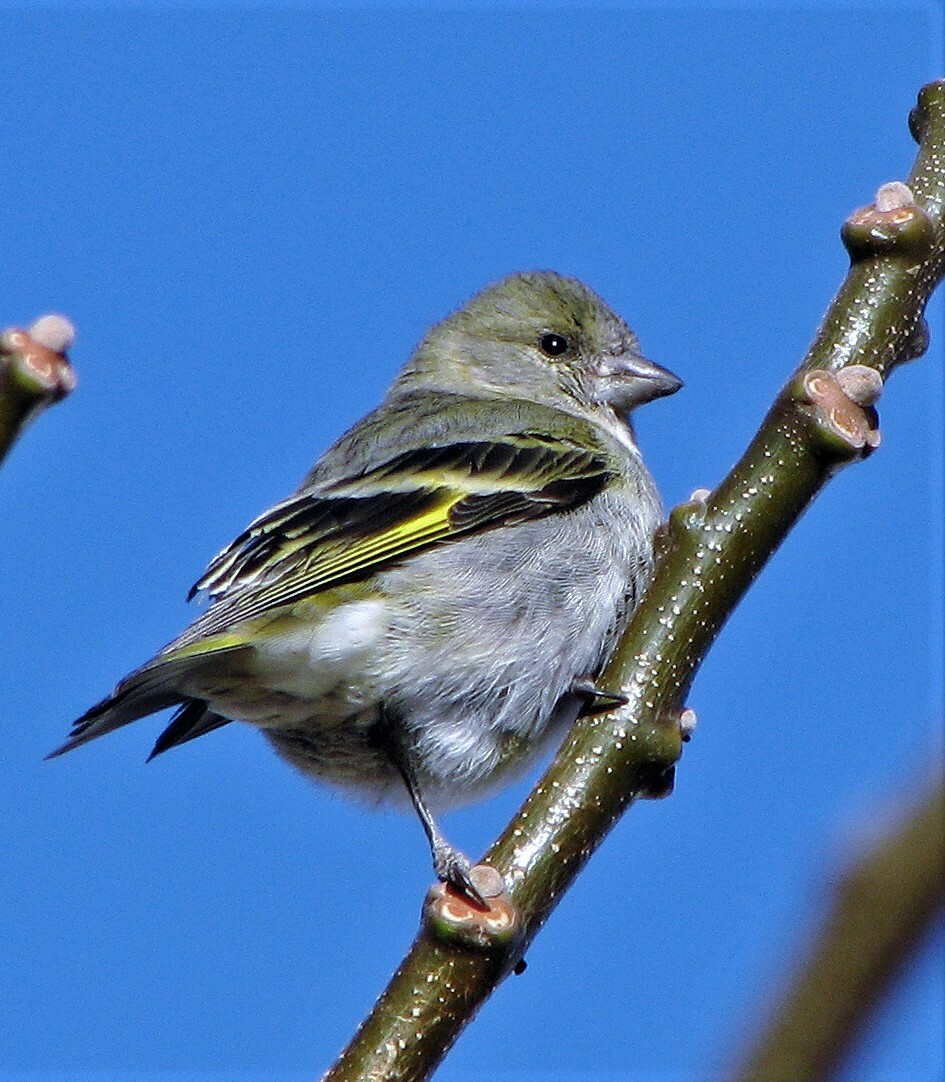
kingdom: Animalia
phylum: Chordata
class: Aves
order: Passeriformes
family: Fringillidae
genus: Spinus
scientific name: Spinus magellanicus
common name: Hooded siskin
